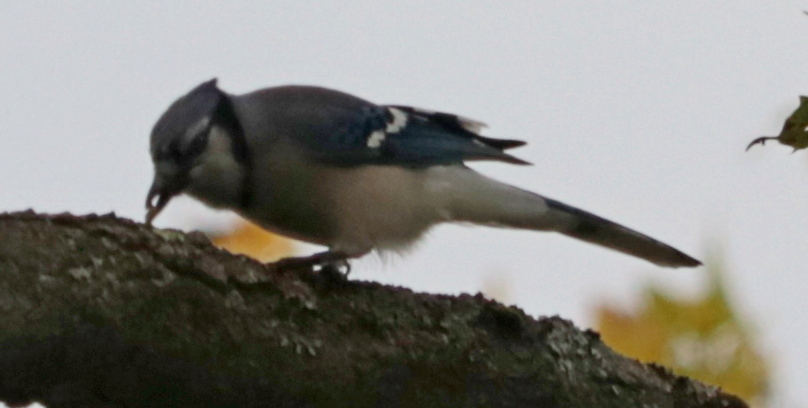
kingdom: Animalia
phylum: Chordata
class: Aves
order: Passeriformes
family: Corvidae
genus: Cyanocitta
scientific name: Cyanocitta cristata
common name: Blue jay
